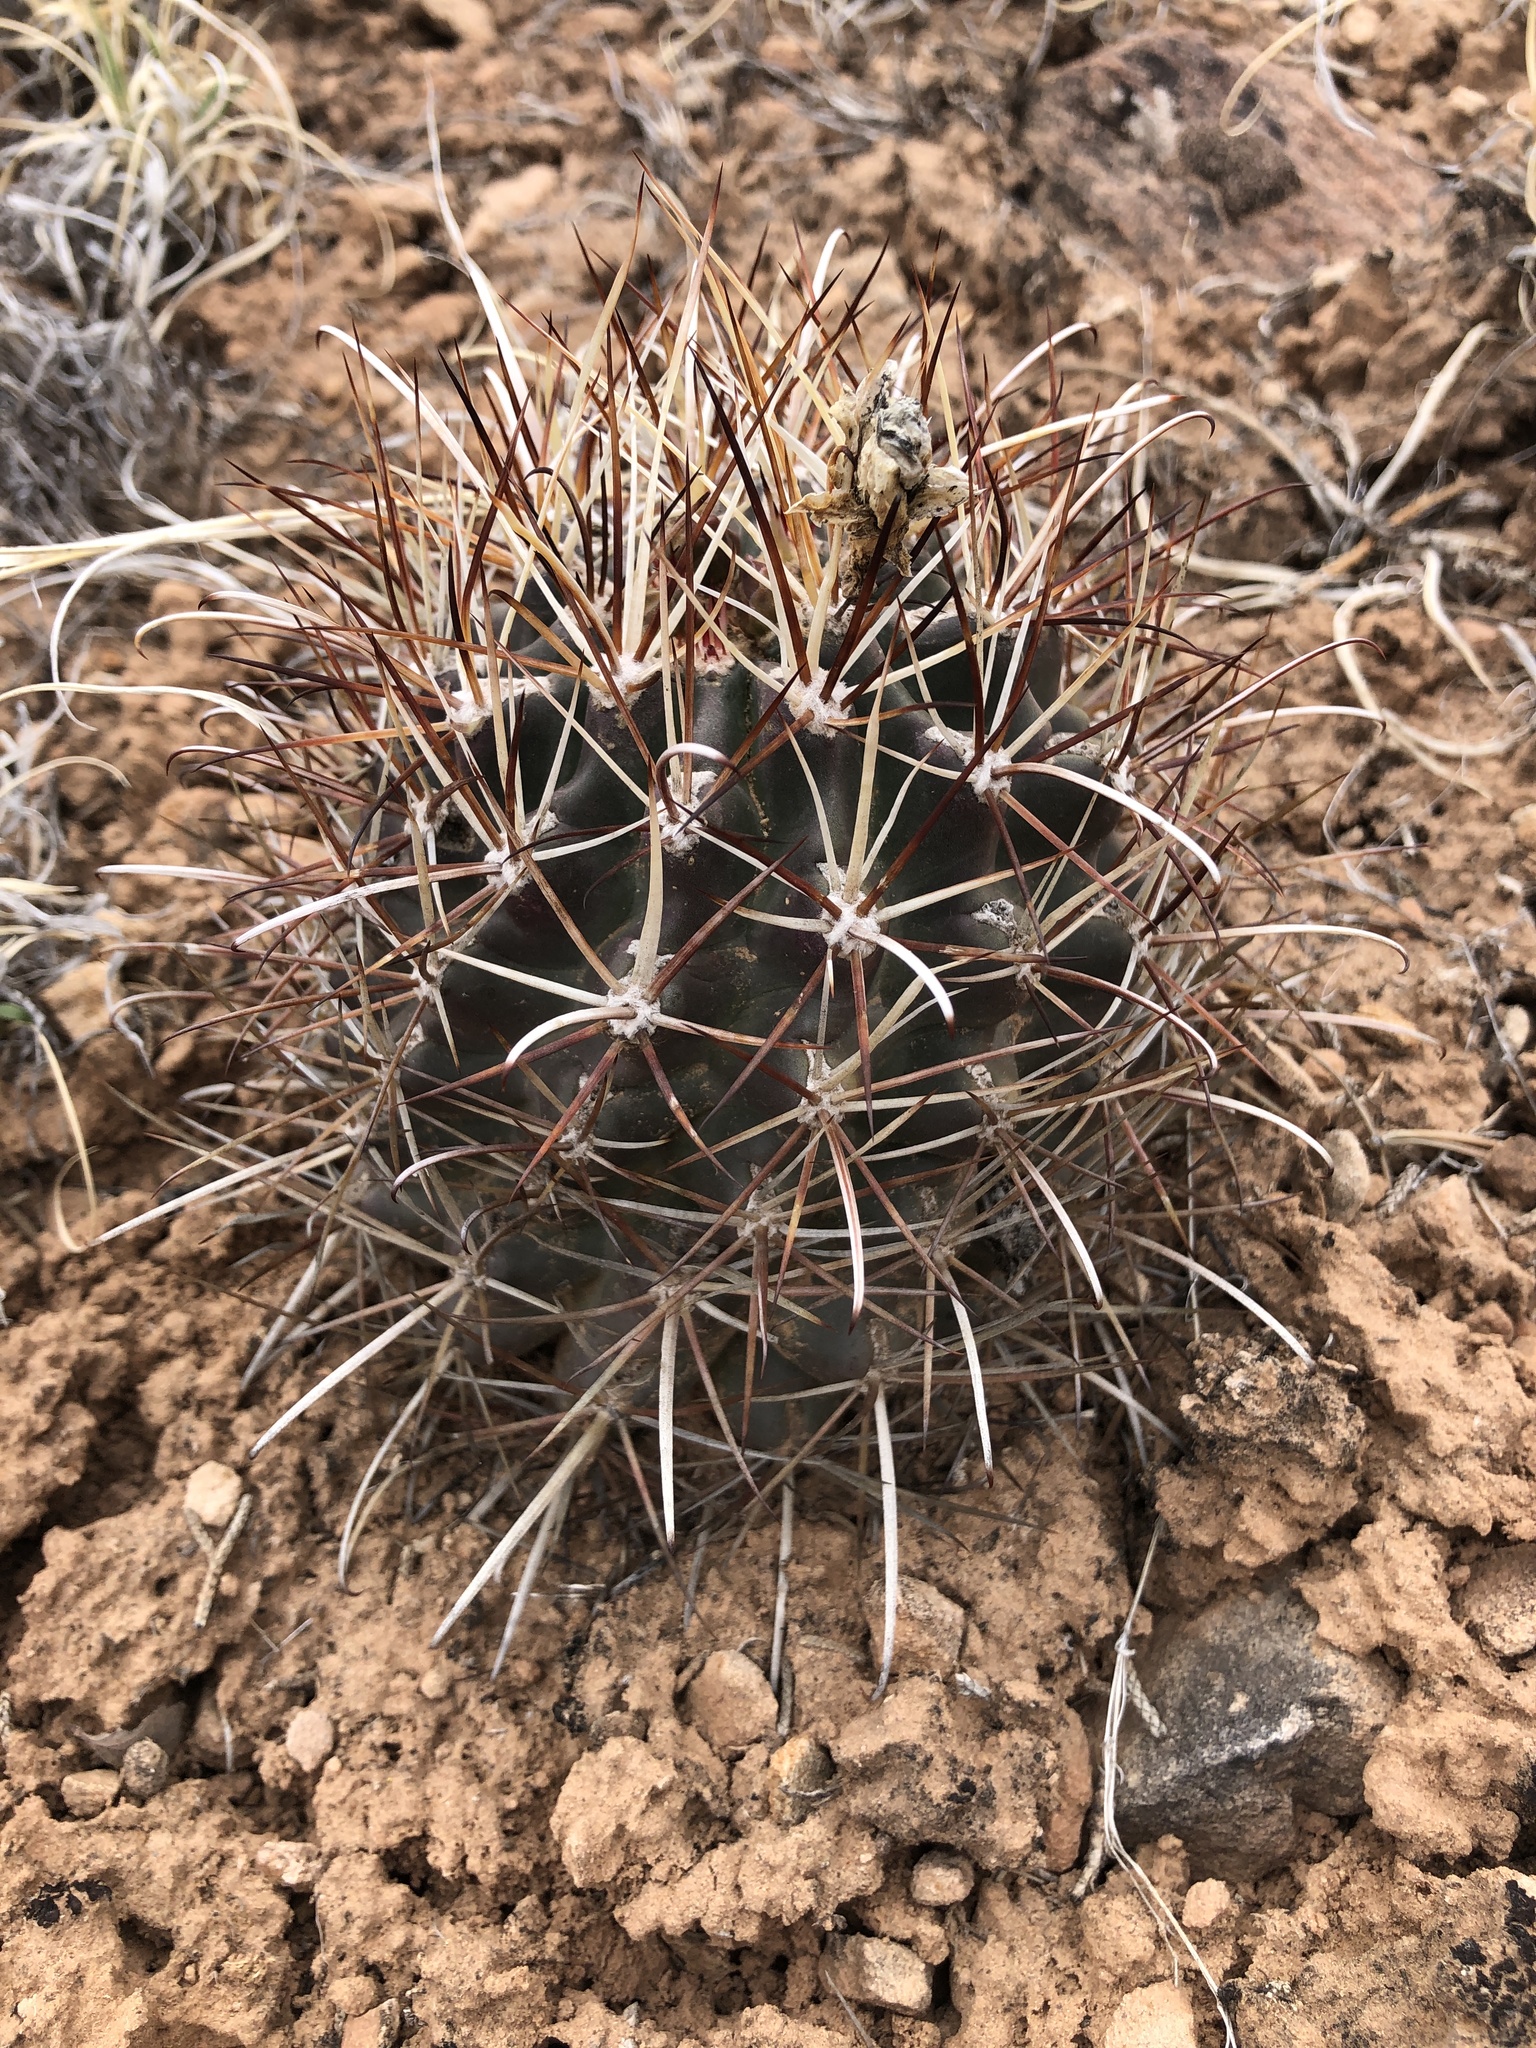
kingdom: Plantae
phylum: Tracheophyta
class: Magnoliopsida
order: Caryophyllales
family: Cactaceae
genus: Sclerocactus
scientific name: Sclerocactus parviflorus
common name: Small-flower fishhook cactus
